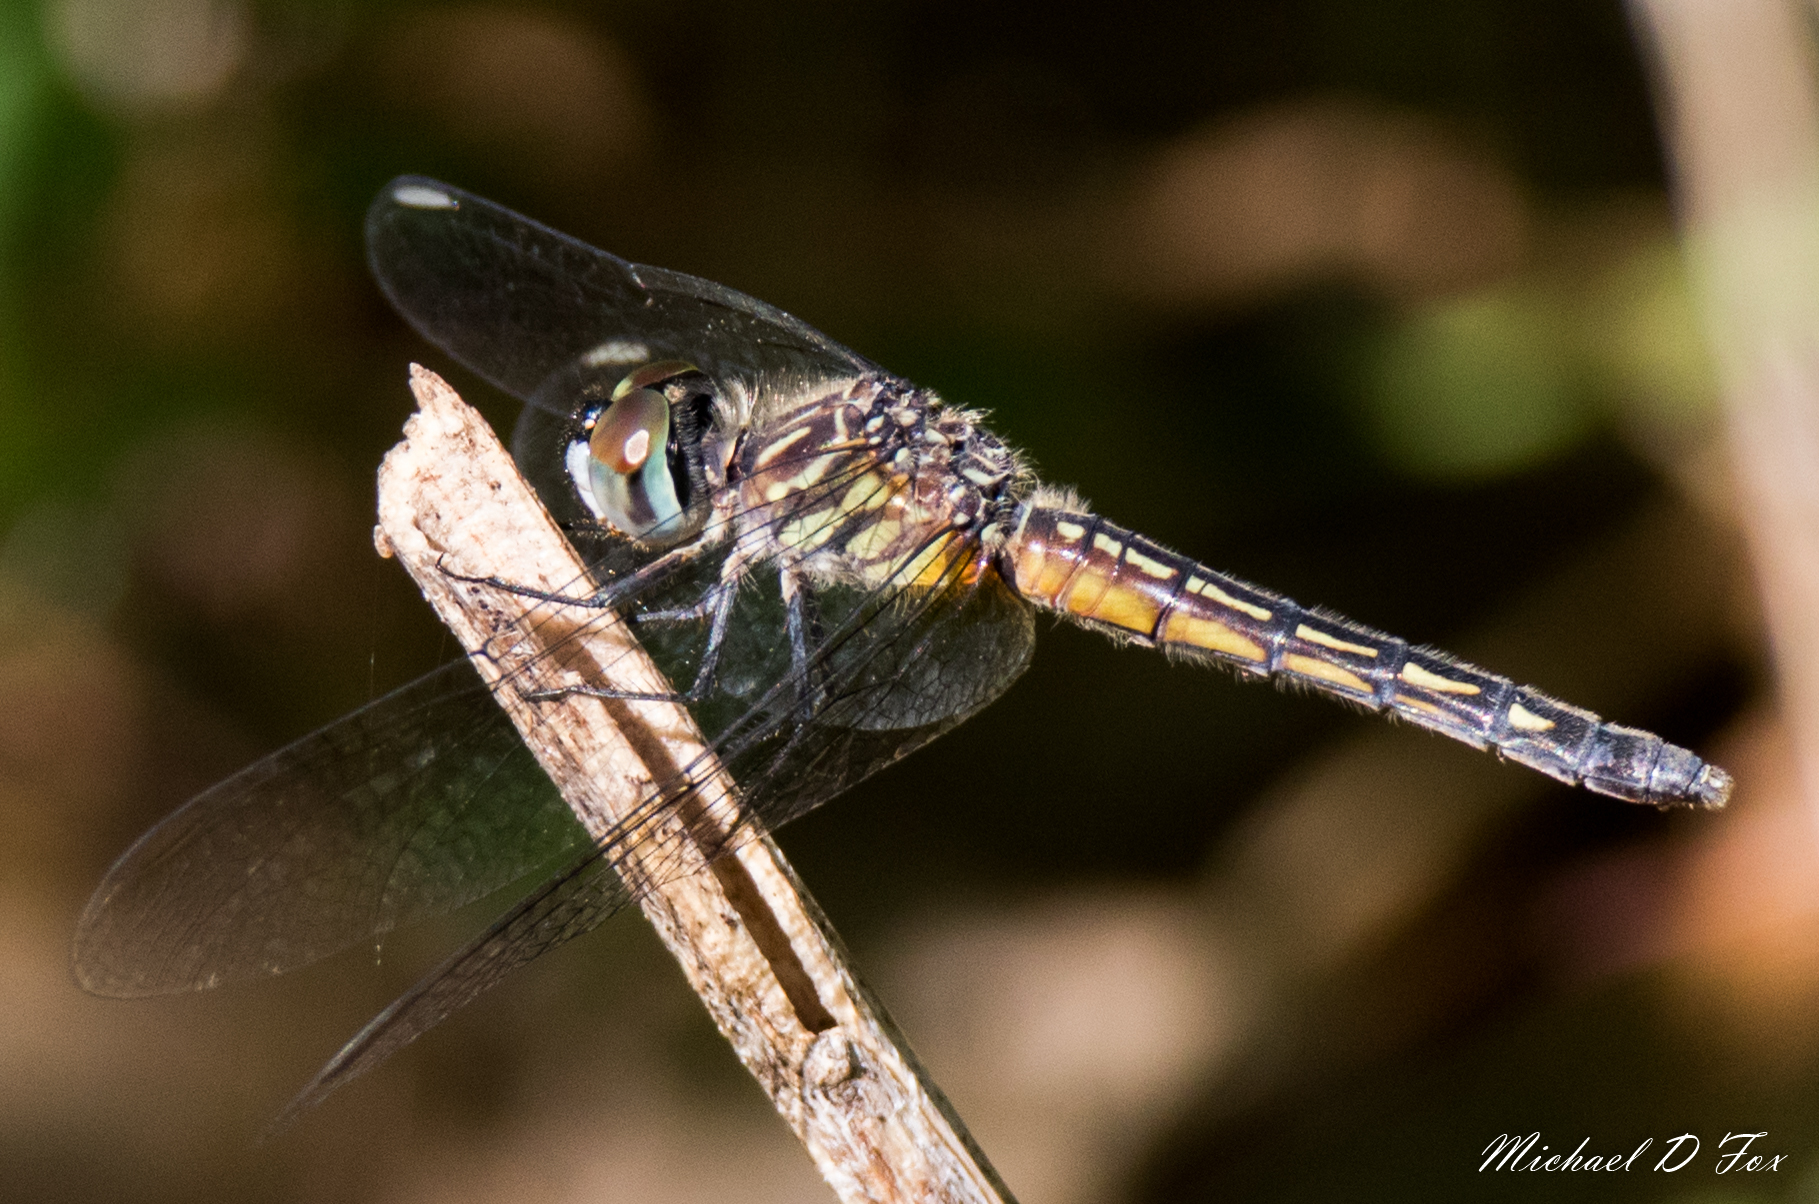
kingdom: Animalia
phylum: Arthropoda
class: Insecta
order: Odonata
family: Libellulidae
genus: Pachydiplax
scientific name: Pachydiplax longipennis
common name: Blue dasher
